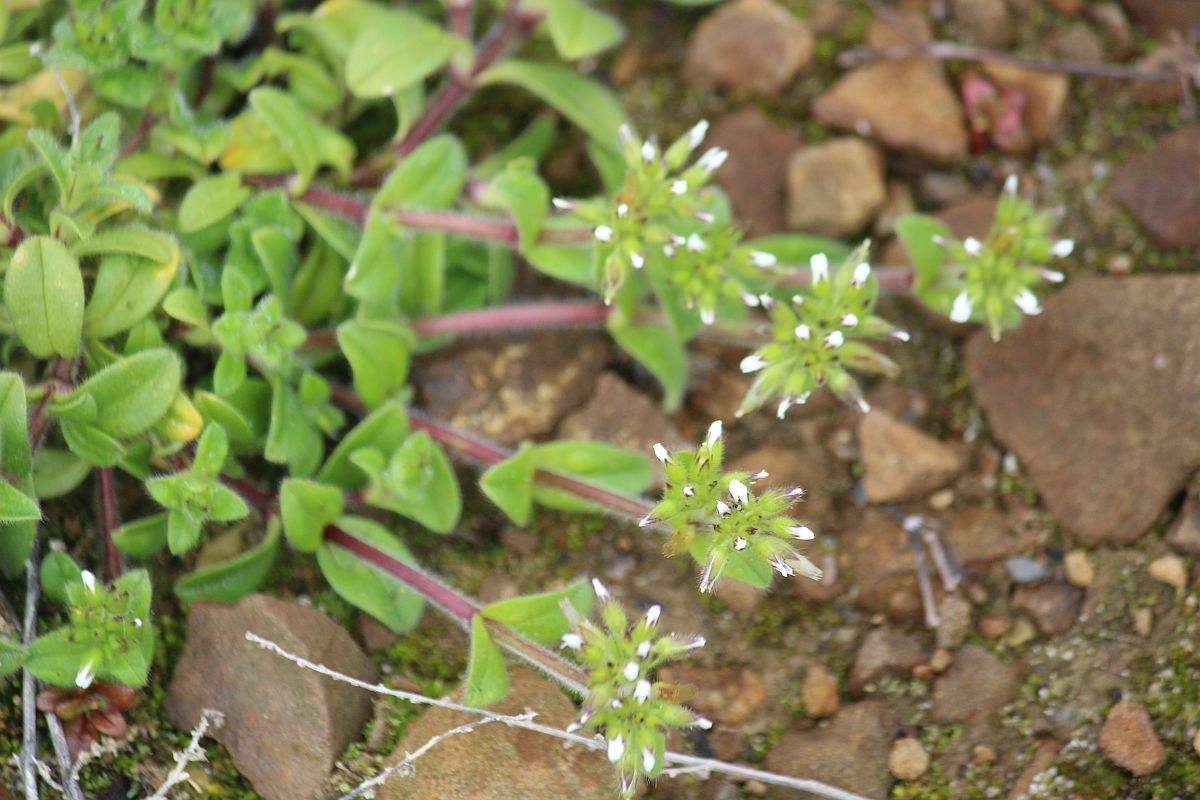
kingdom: Plantae
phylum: Tracheophyta
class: Magnoliopsida
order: Caryophyllales
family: Caryophyllaceae
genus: Cerastium
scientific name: Cerastium glomeratum
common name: Sticky chickweed
